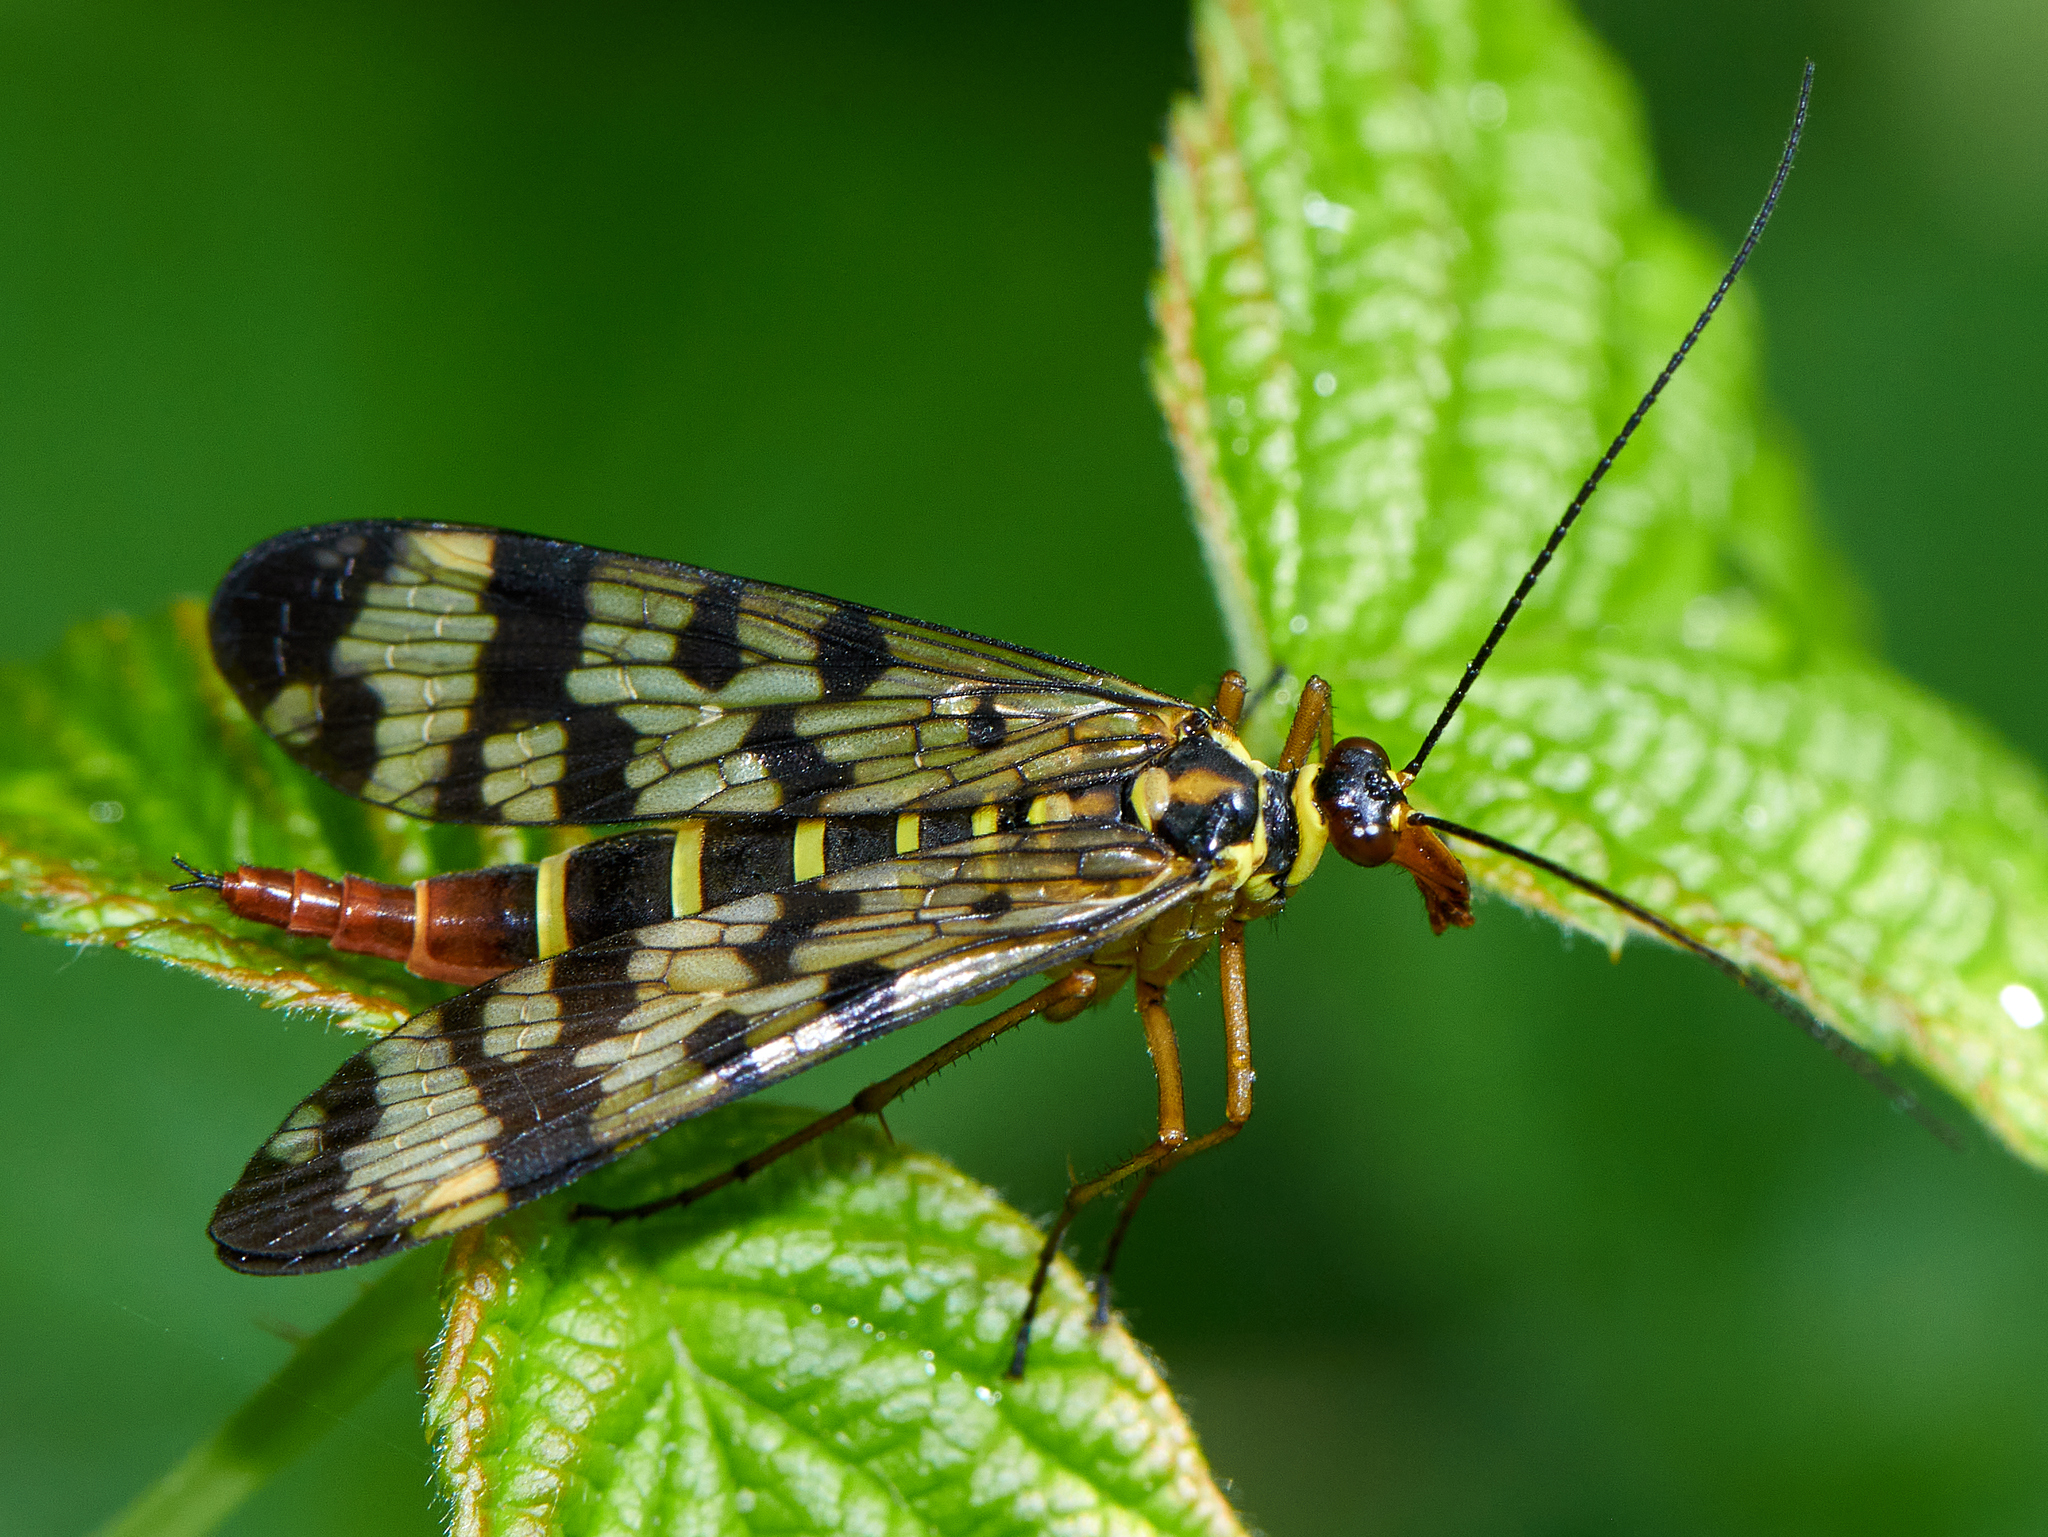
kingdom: Animalia
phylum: Arthropoda
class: Insecta
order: Mecoptera
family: Panorpidae
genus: Panorpa
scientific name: Panorpa communis
